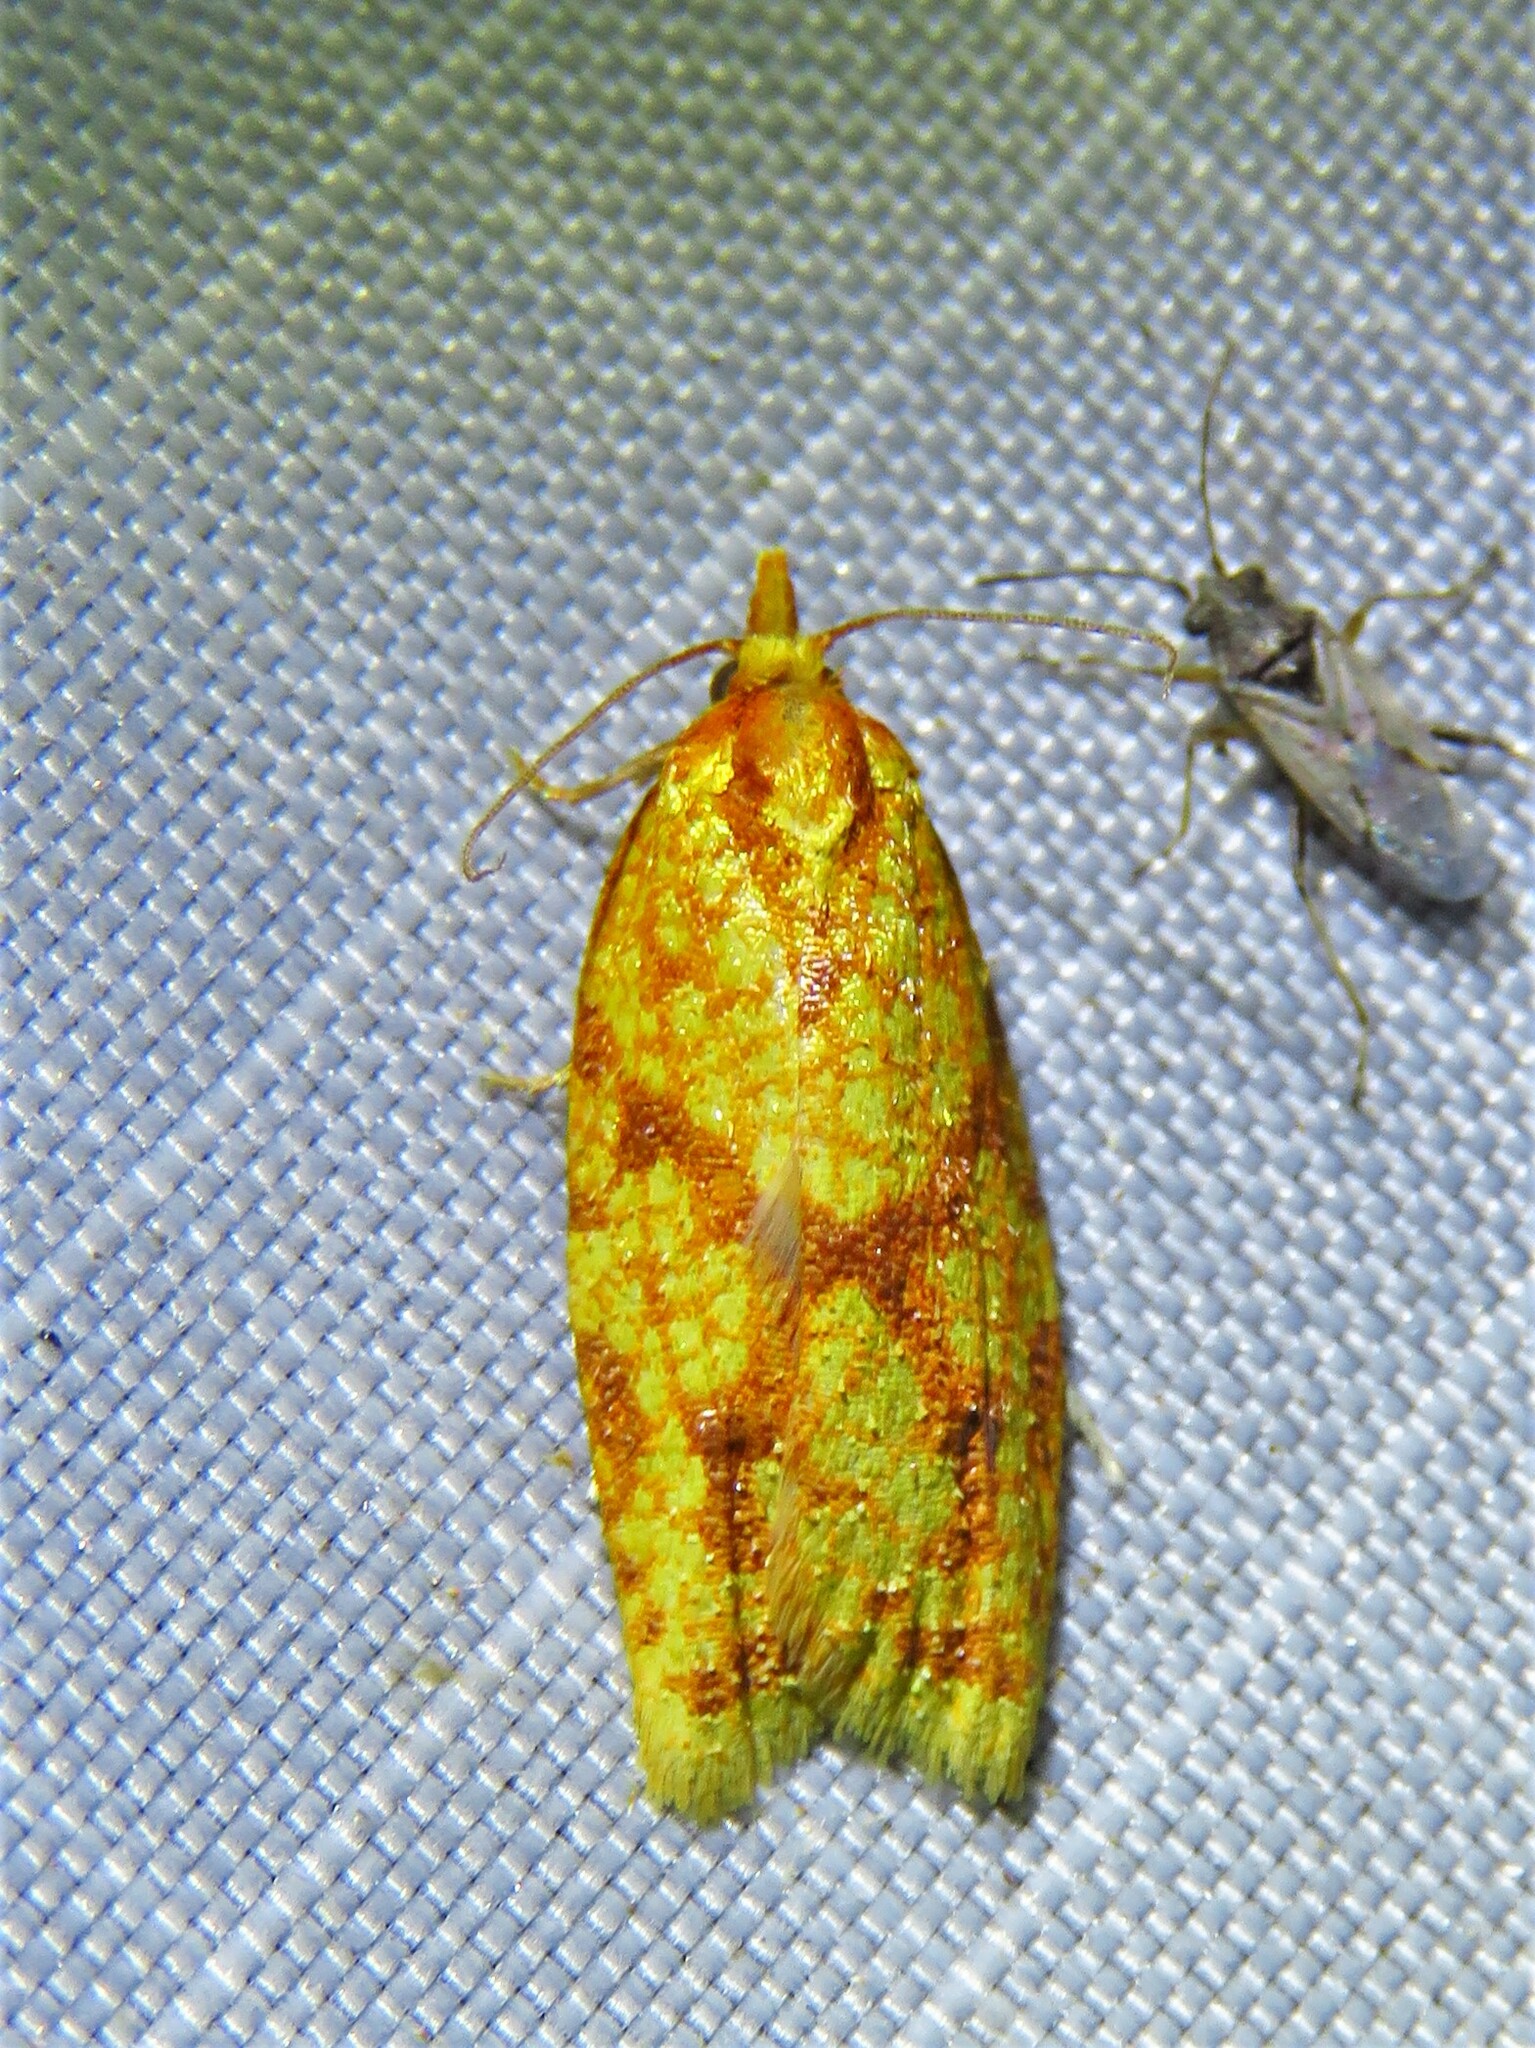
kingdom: Animalia
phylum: Arthropoda
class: Insecta
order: Lepidoptera
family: Tortricidae
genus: Sparganothis
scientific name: Sparganothis sulfureana
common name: Sparganothis fruitworm moth
